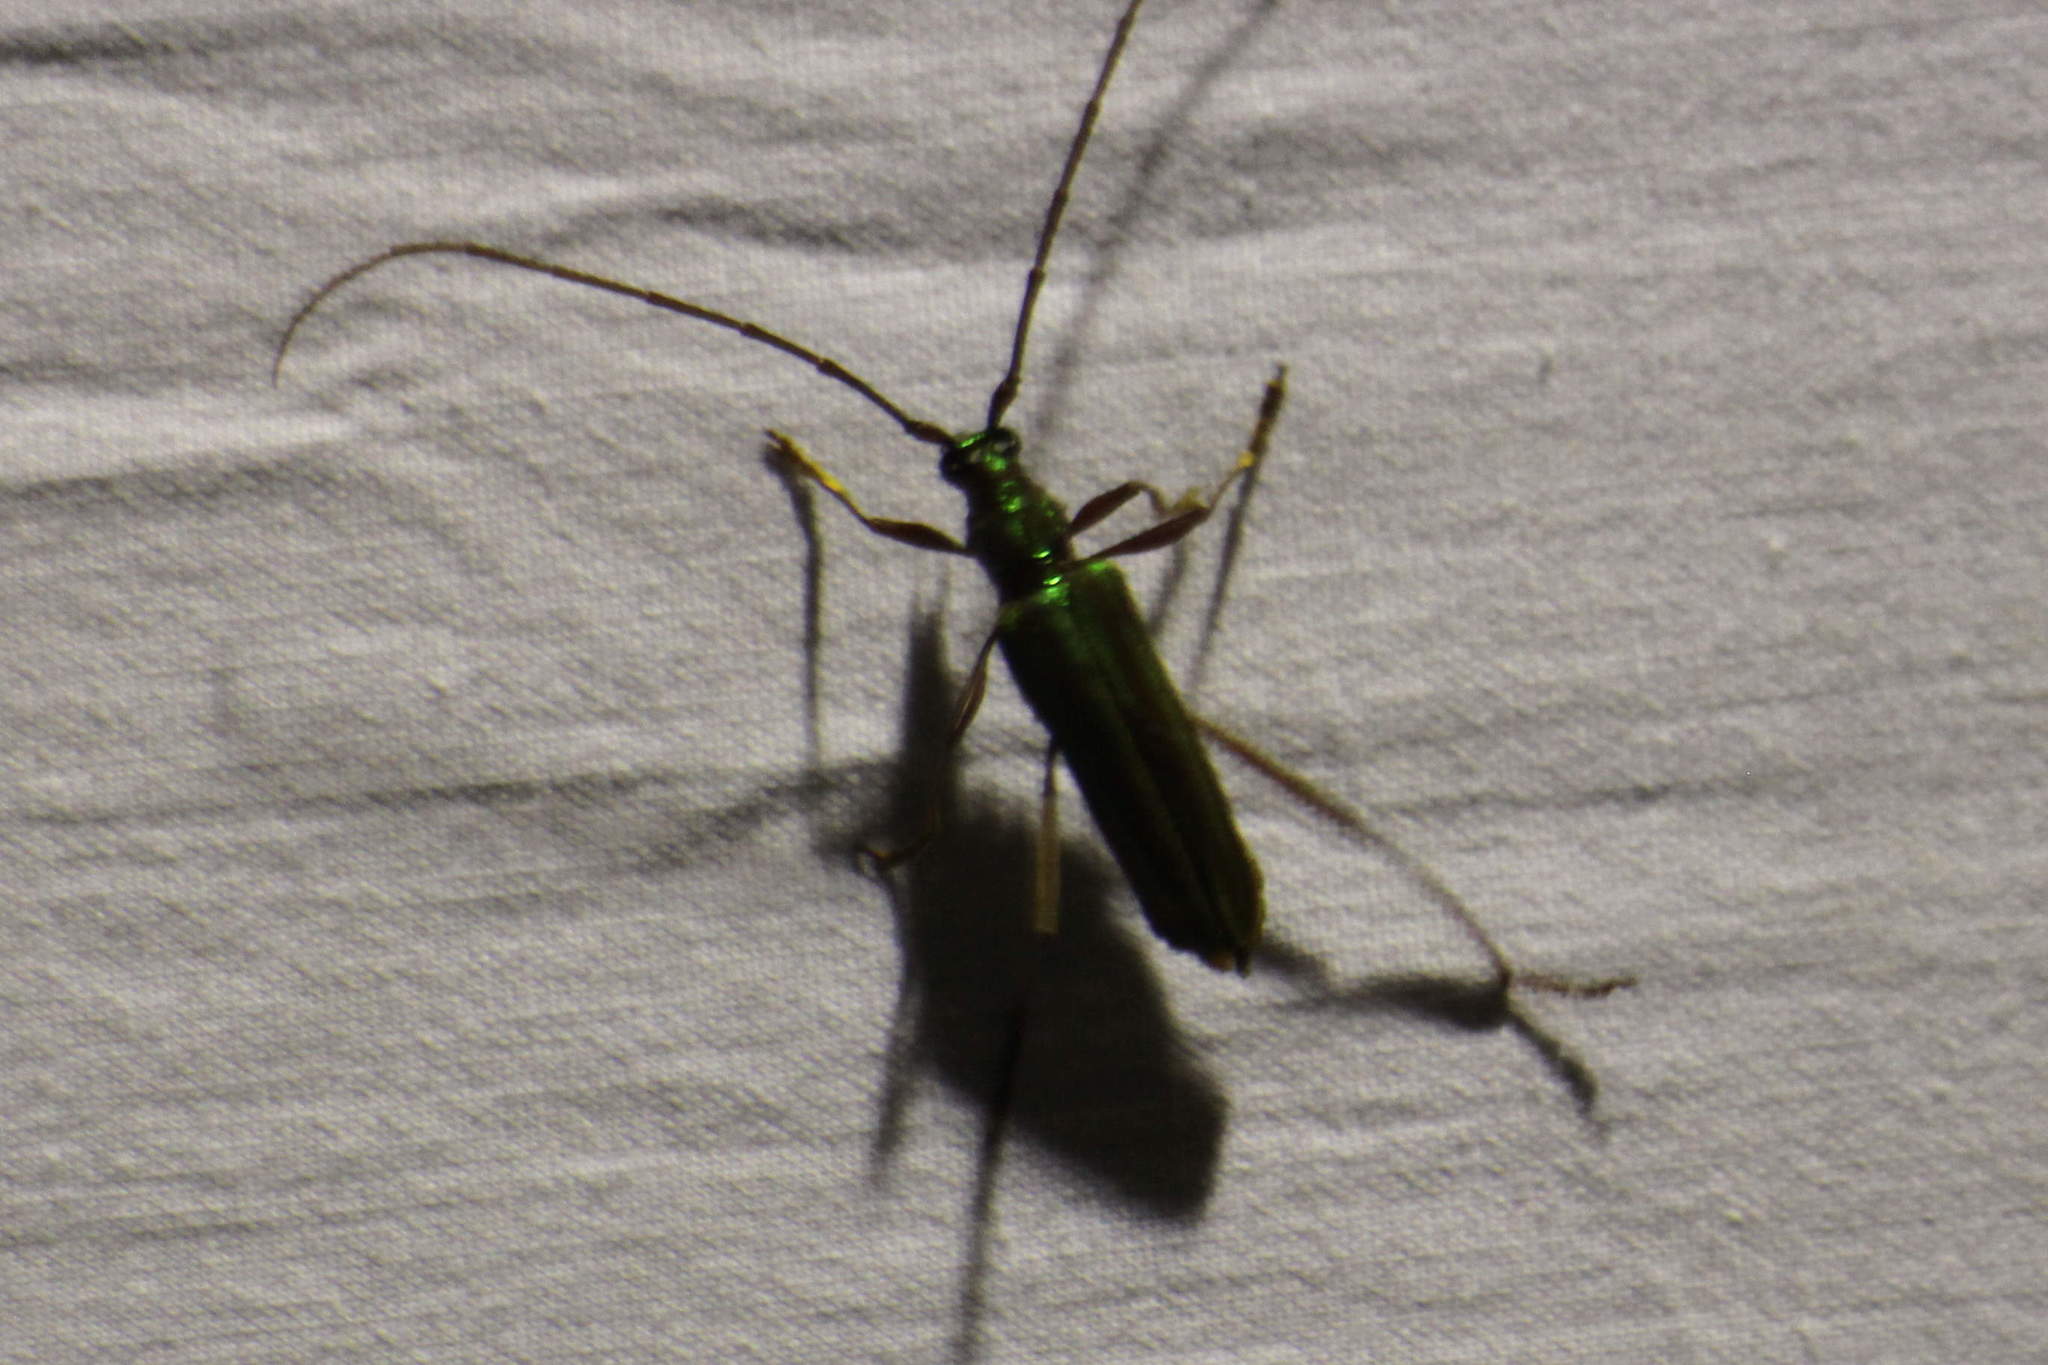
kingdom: Animalia
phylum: Arthropoda
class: Insecta
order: Coleoptera
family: Cerambycidae
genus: Mionochroma
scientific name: Mionochroma elegans
